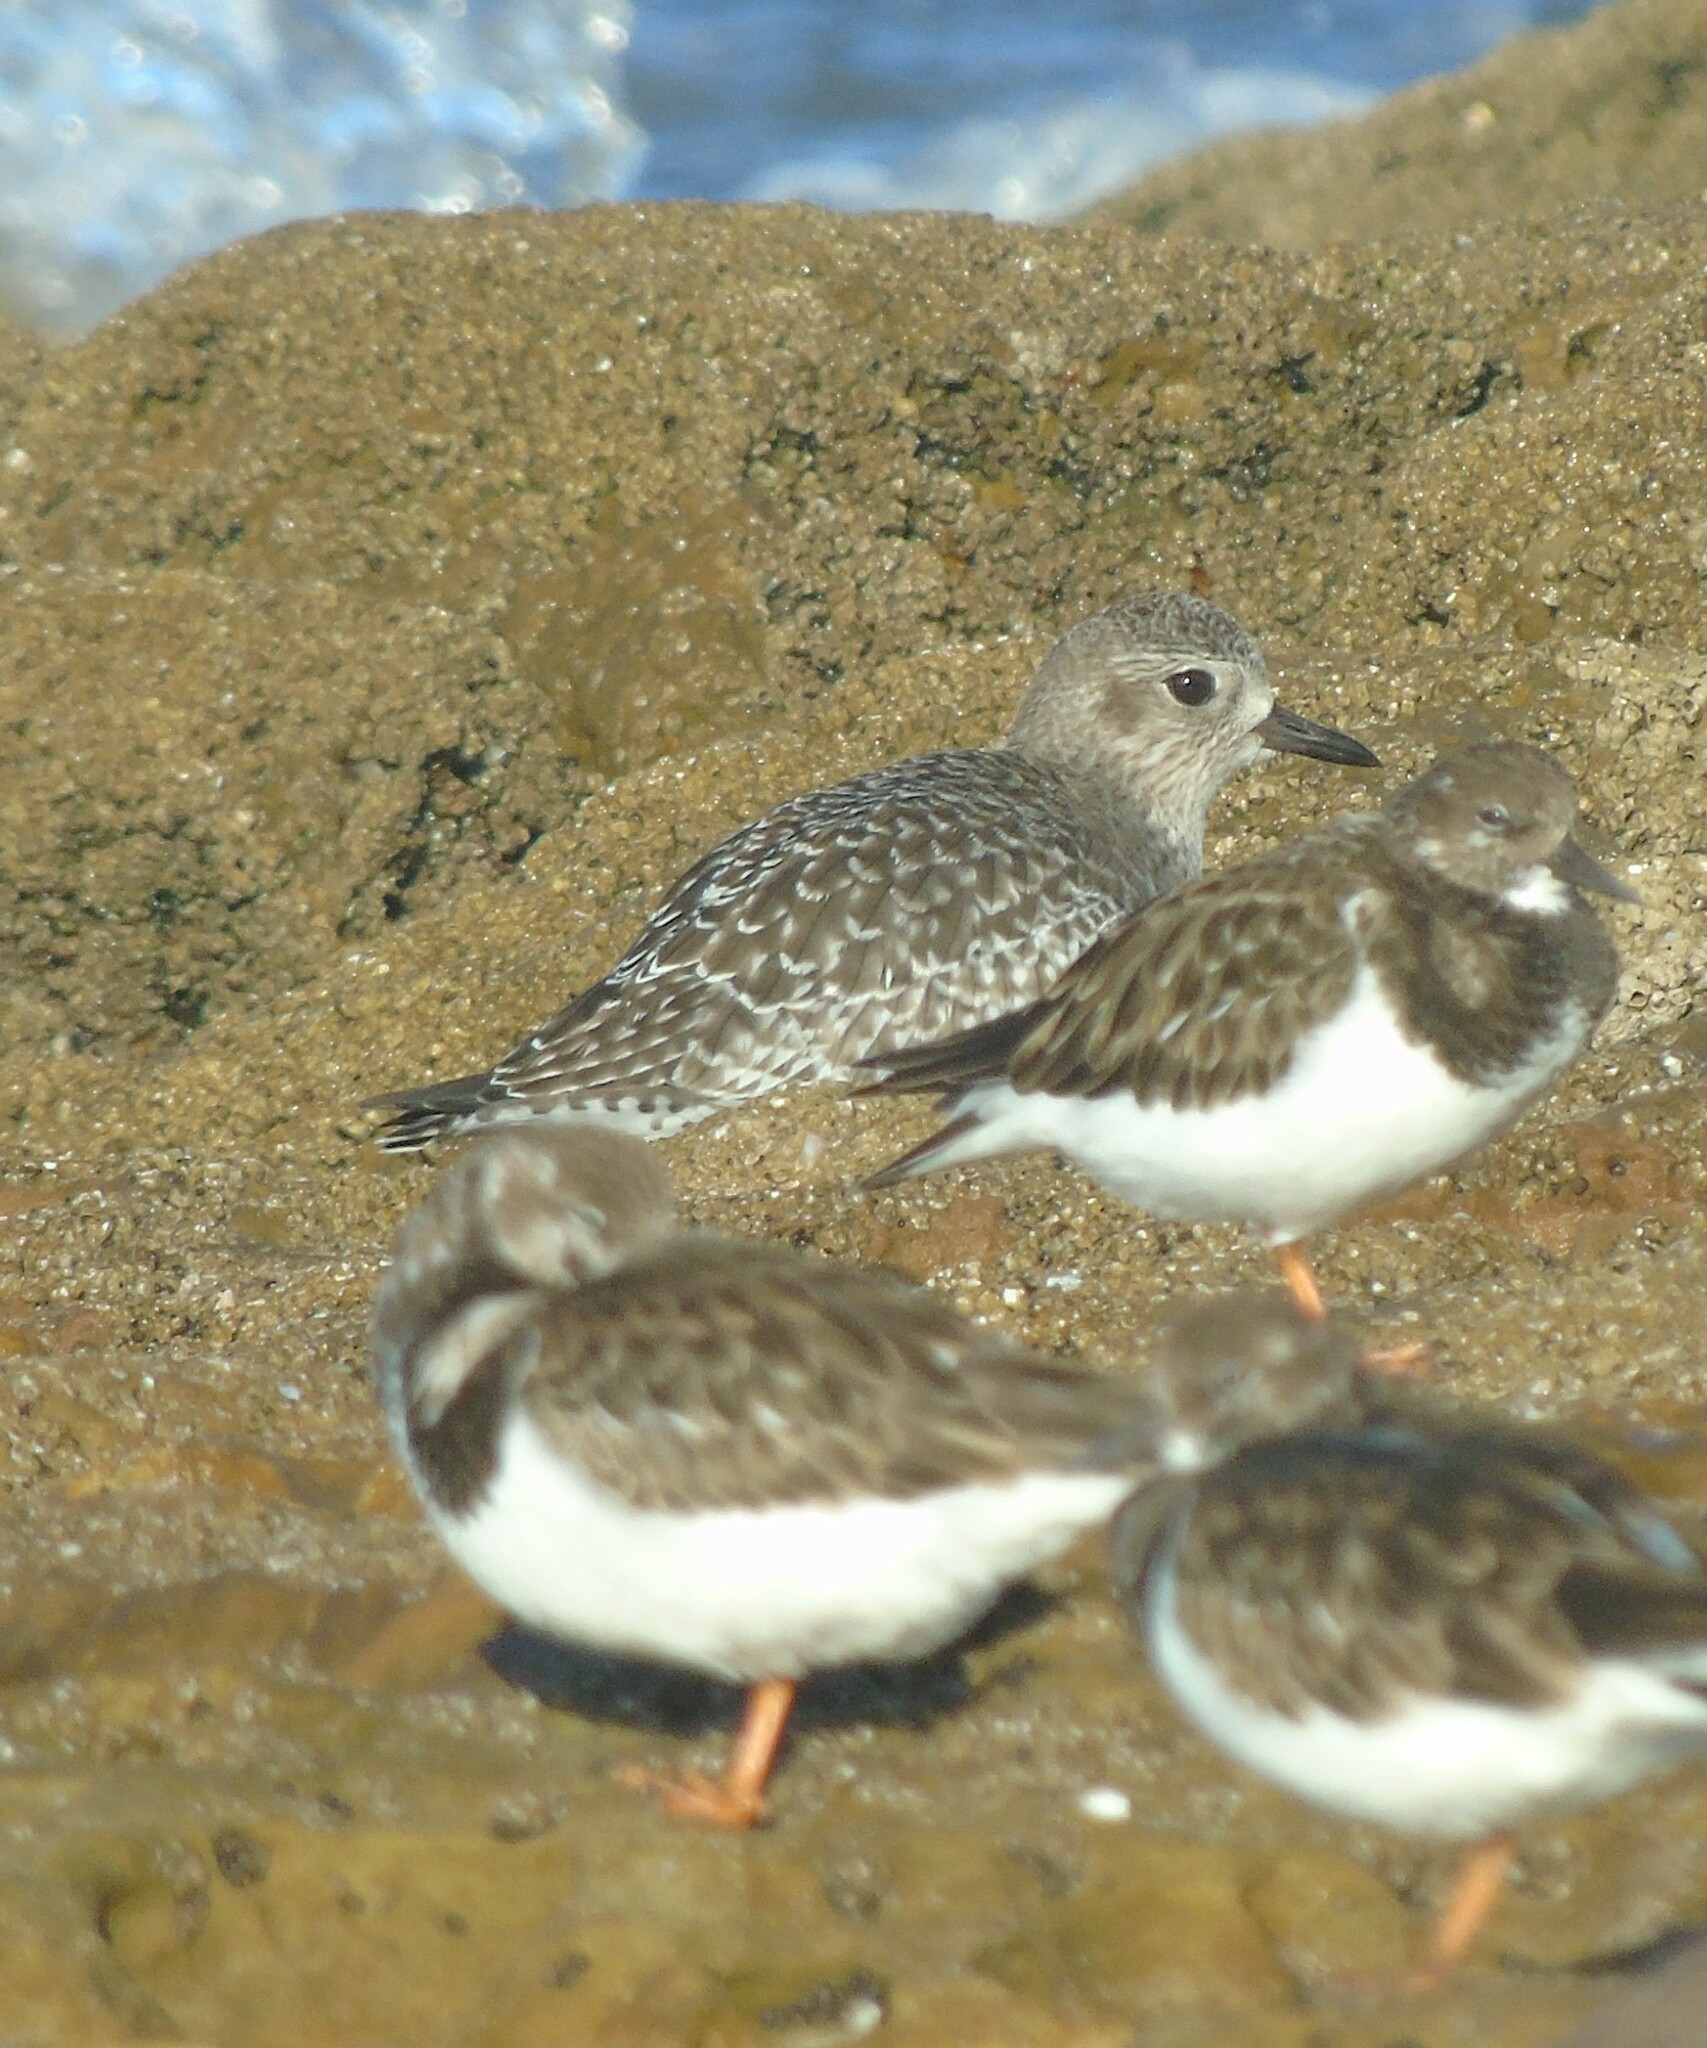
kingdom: Animalia
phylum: Chordata
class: Aves
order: Charadriiformes
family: Charadriidae
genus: Pluvialis
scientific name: Pluvialis squatarola
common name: Grey plover
